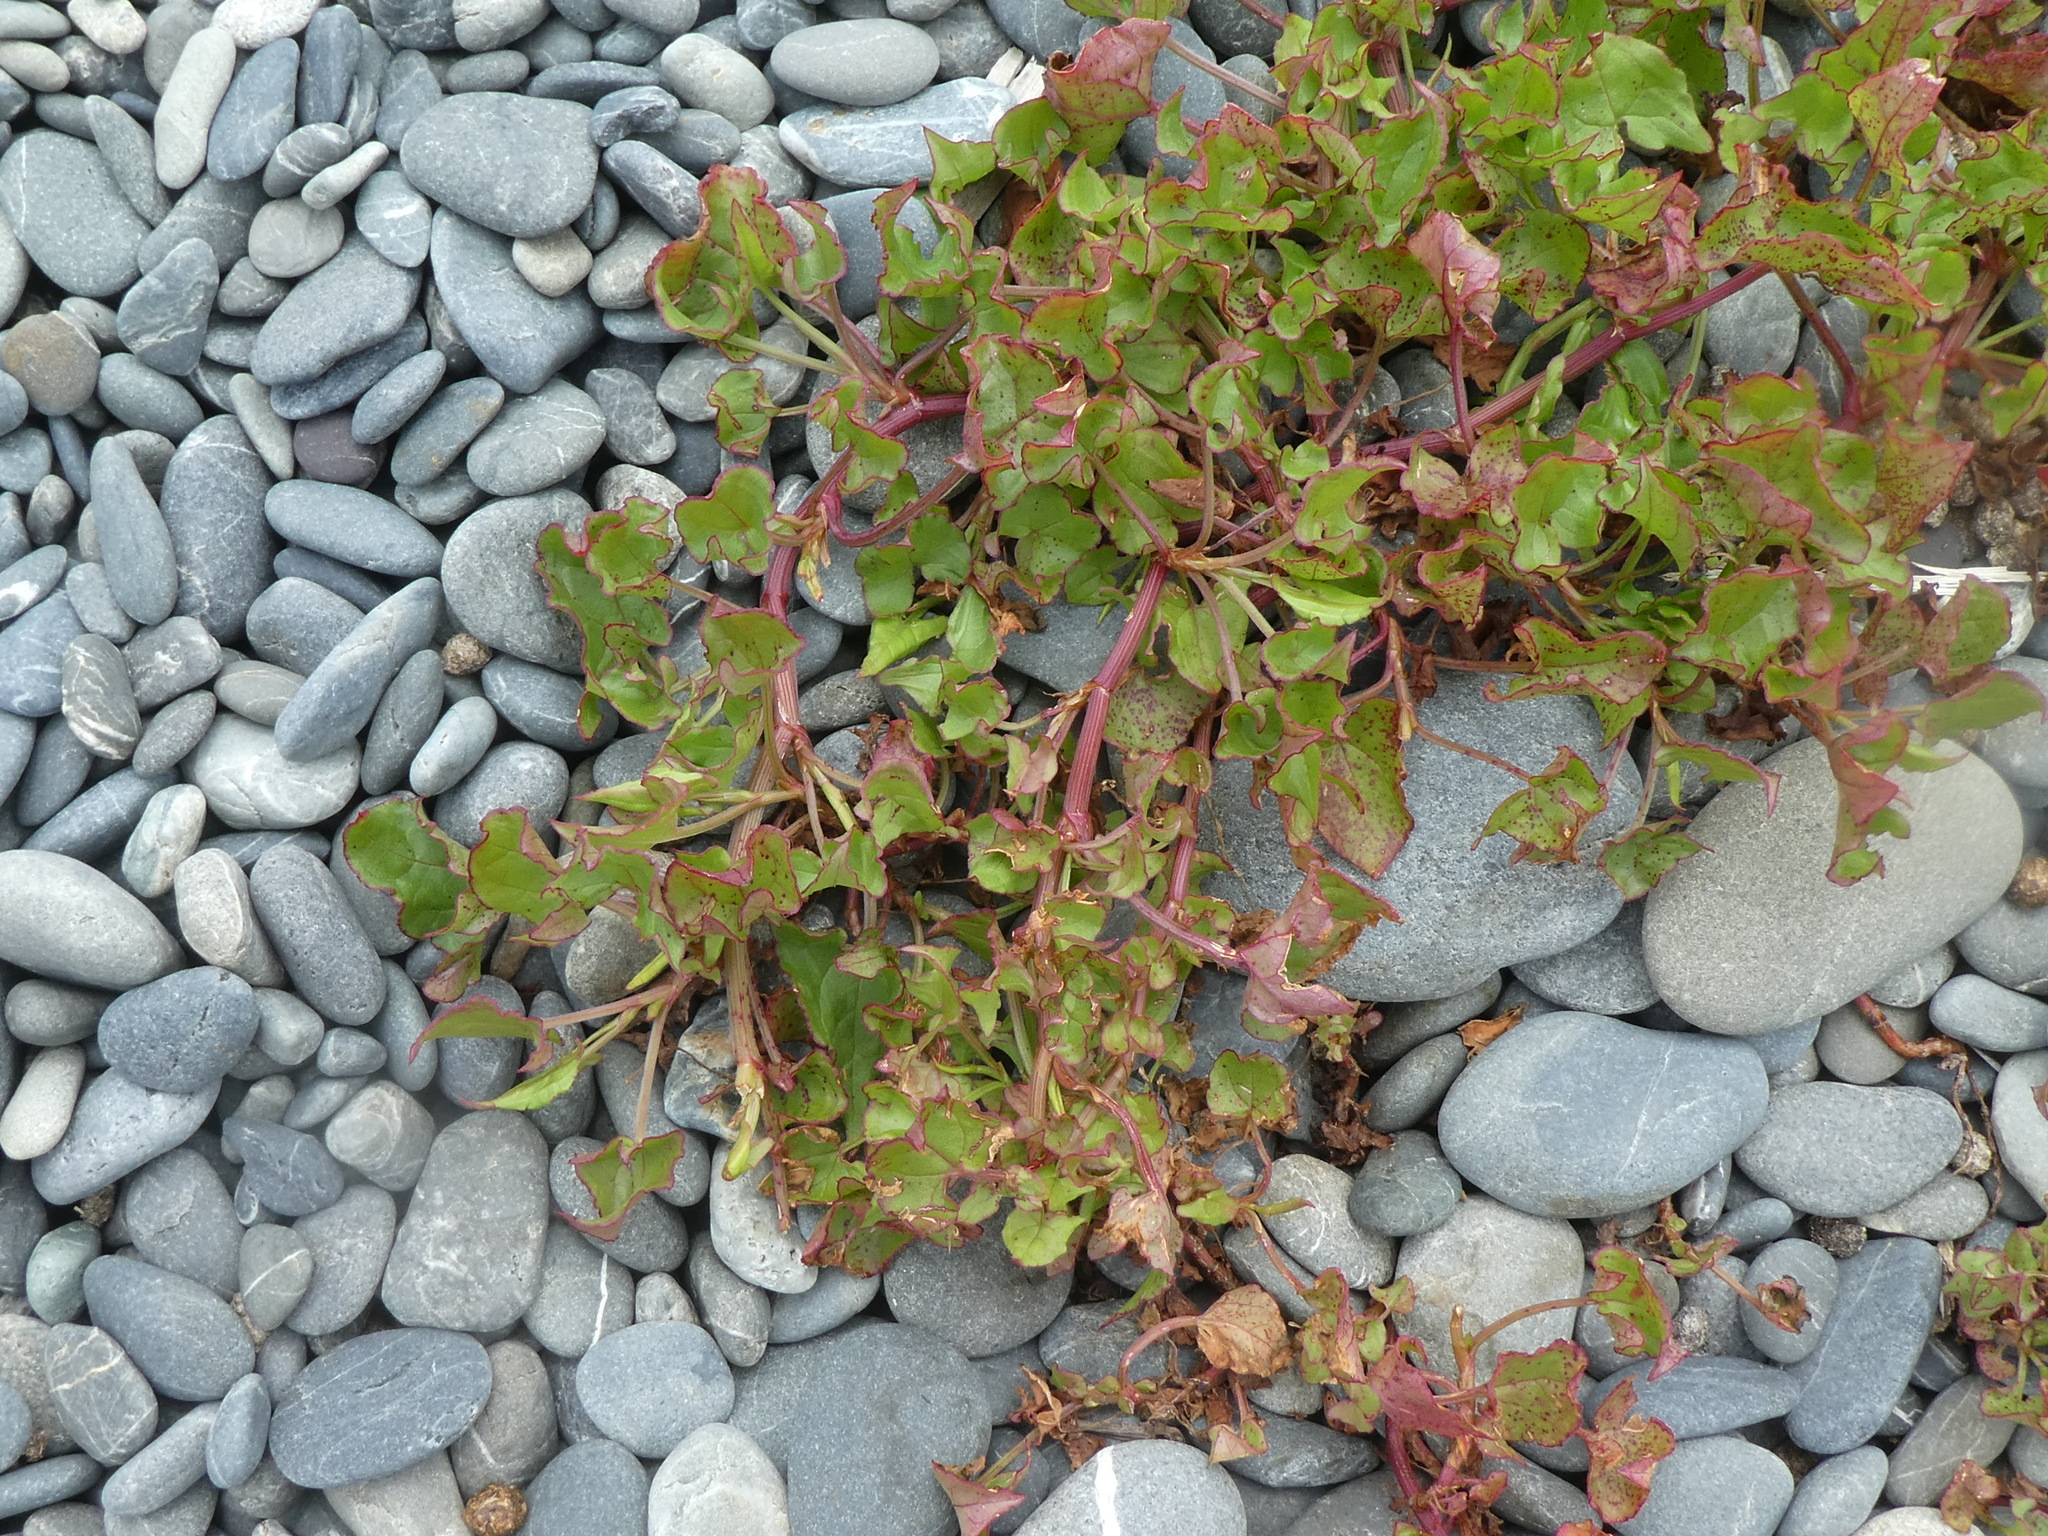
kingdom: Plantae
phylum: Tracheophyta
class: Magnoliopsida
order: Caryophyllales
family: Polygonaceae
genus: Rumex
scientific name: Rumex sagittatus
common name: Climbing dock
